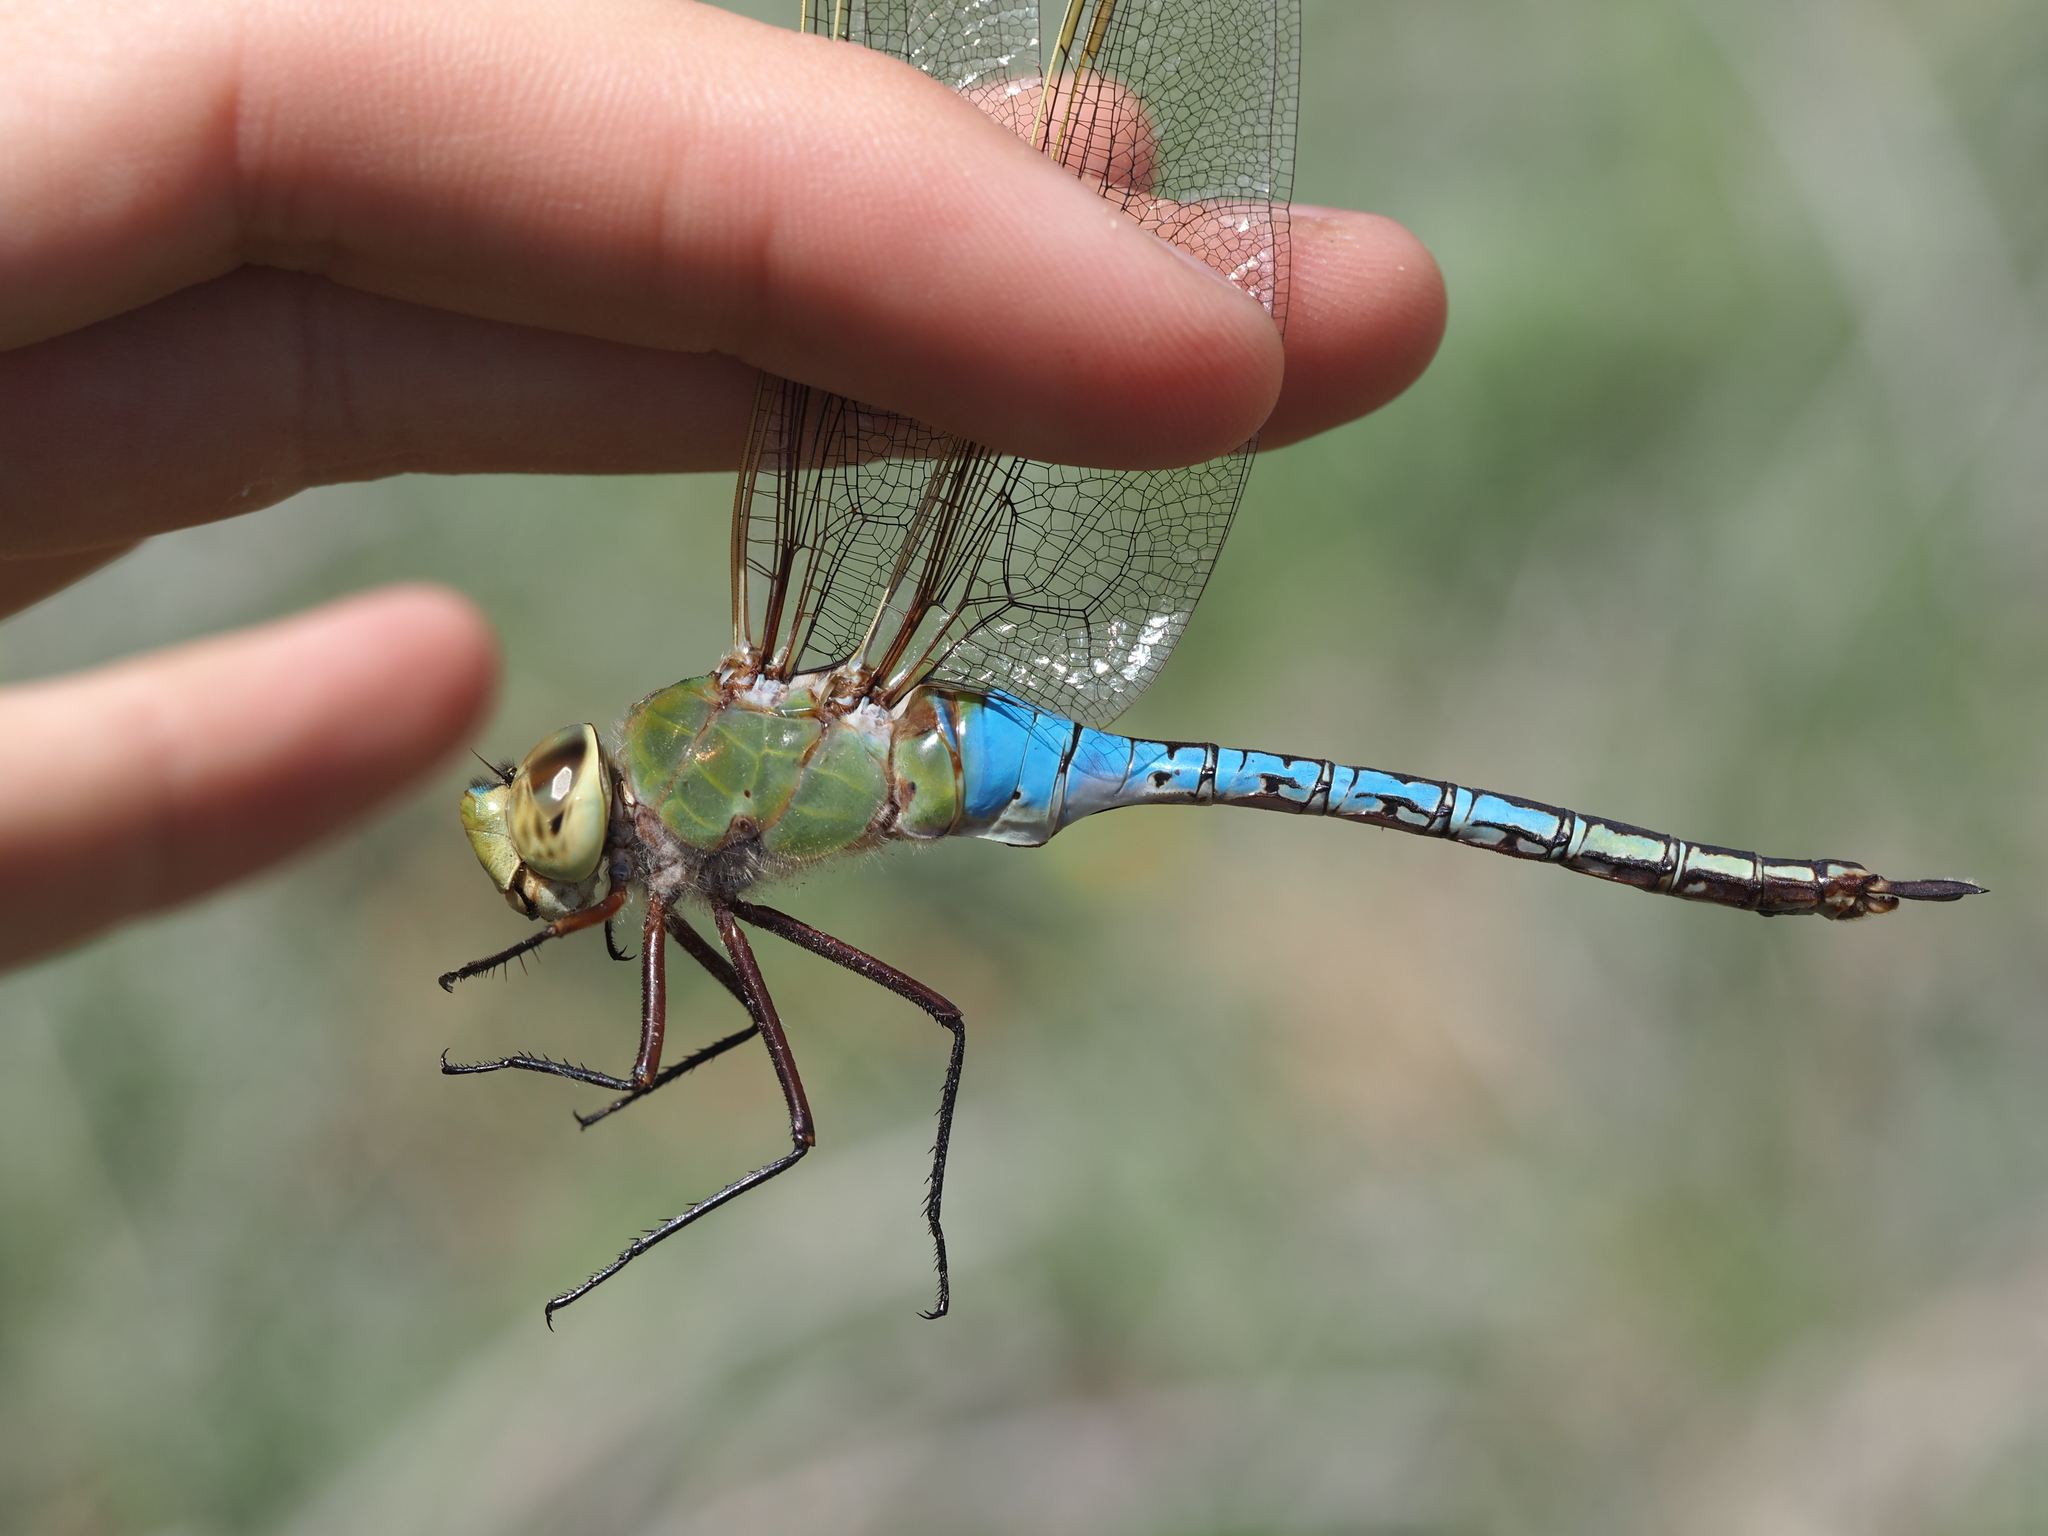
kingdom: Animalia
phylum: Arthropoda
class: Insecta
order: Odonata
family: Aeshnidae
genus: Anax
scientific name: Anax junius
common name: Common green darner
